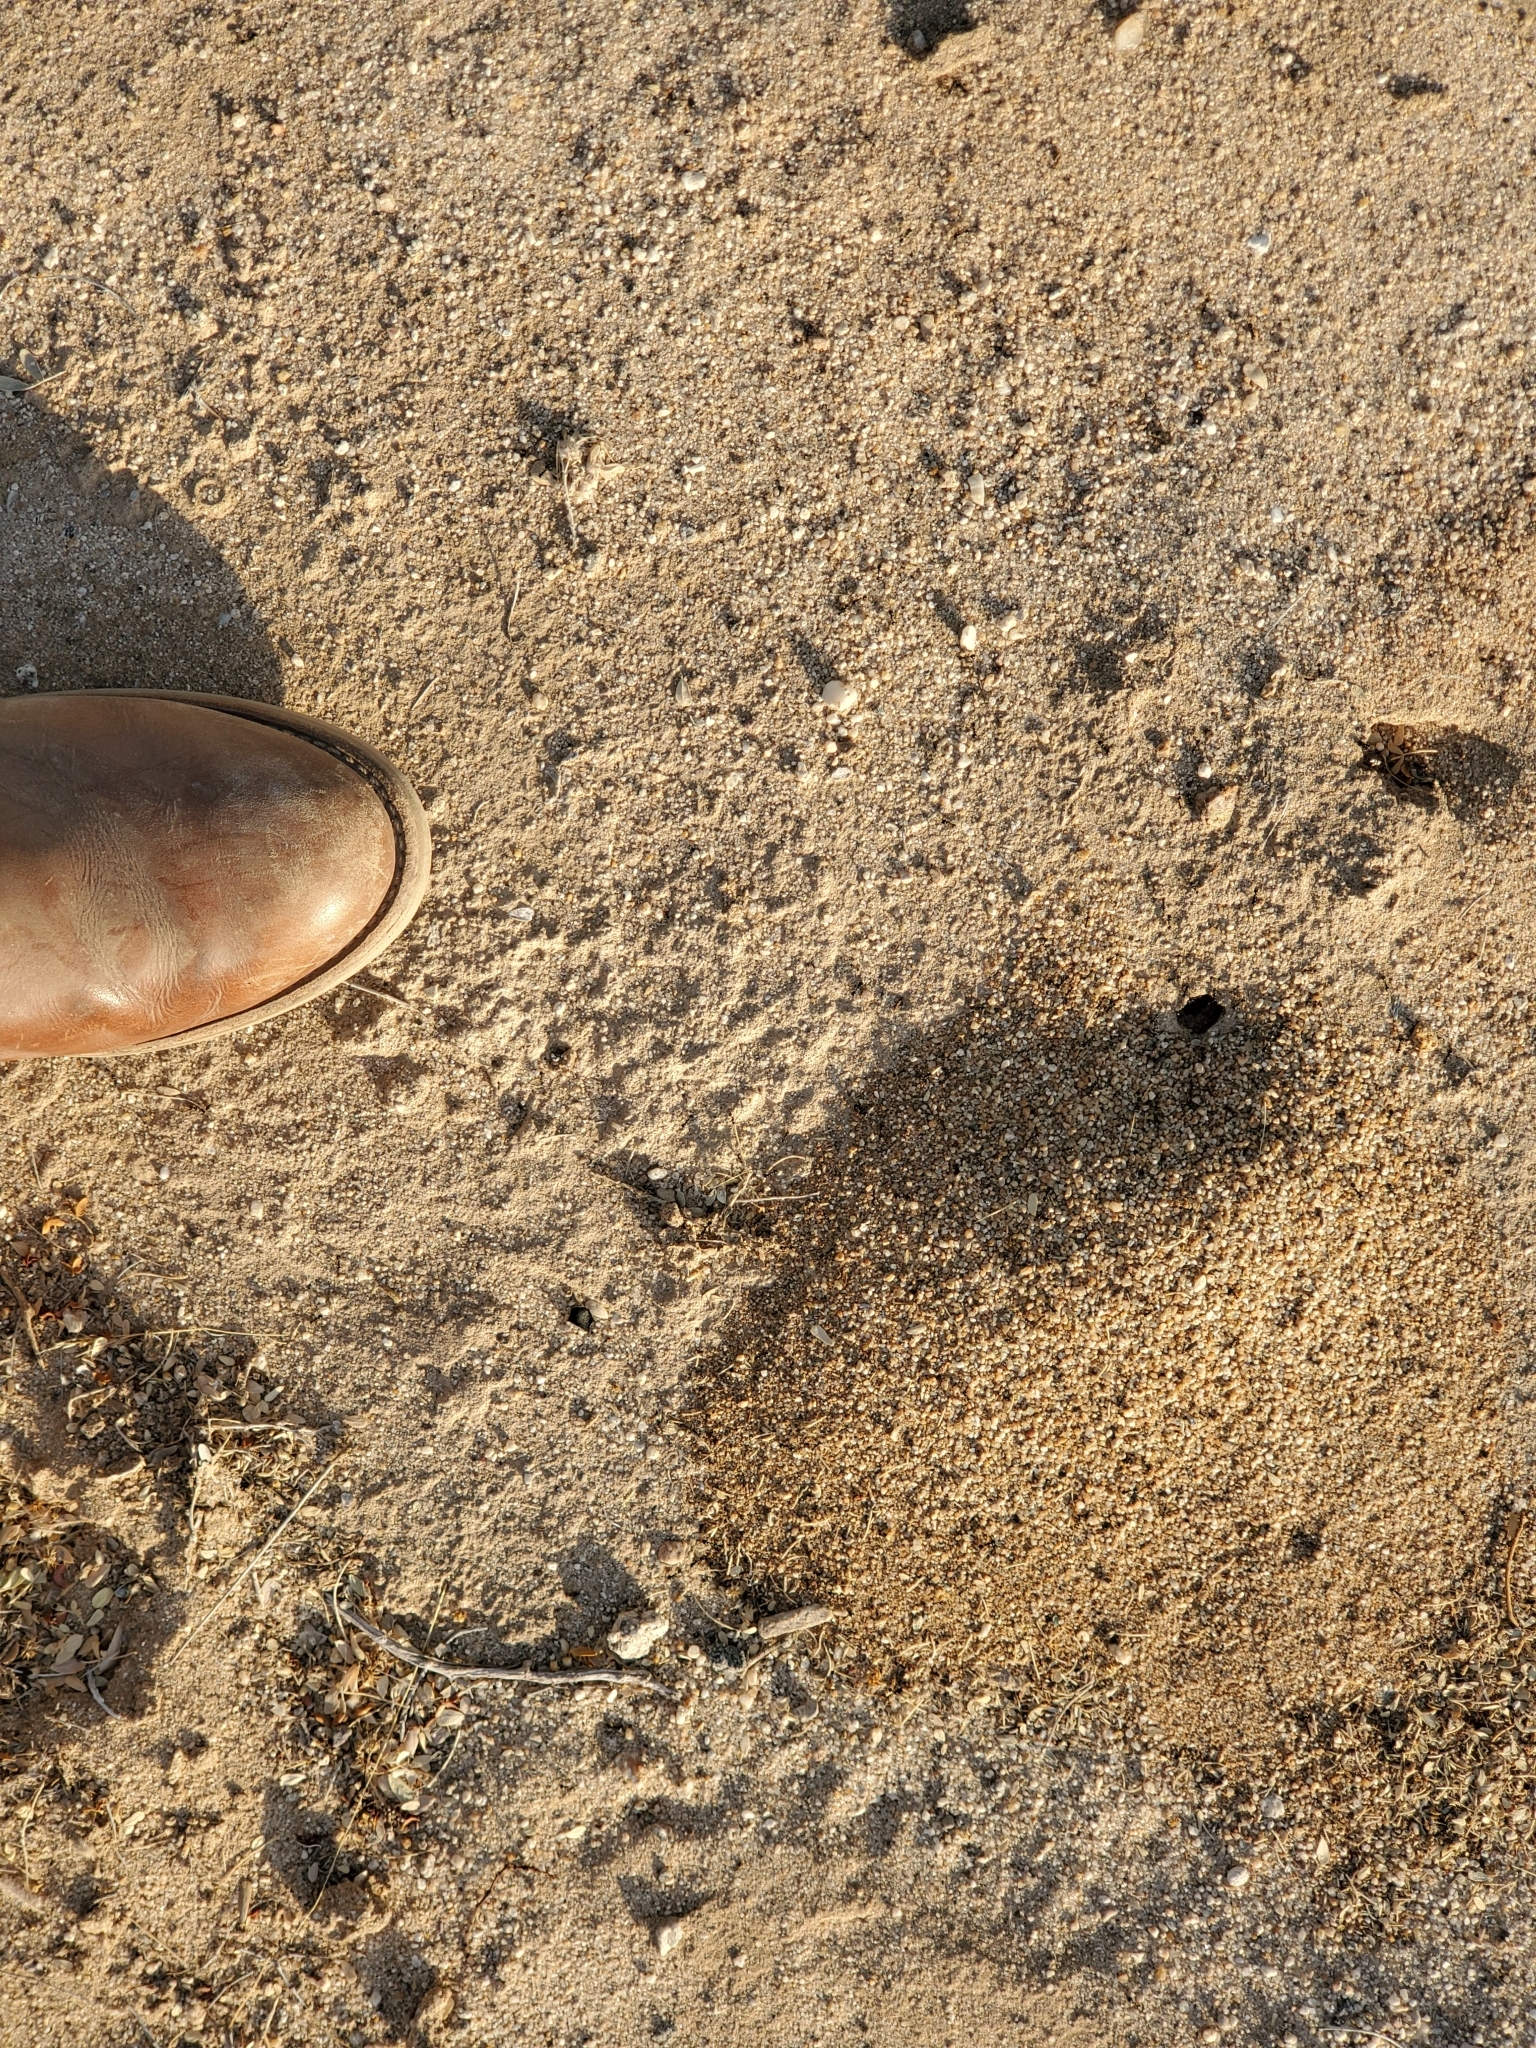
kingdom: Animalia
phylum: Arthropoda
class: Insecta
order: Hymenoptera
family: Formicidae
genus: Messor
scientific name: Messor pergandei
